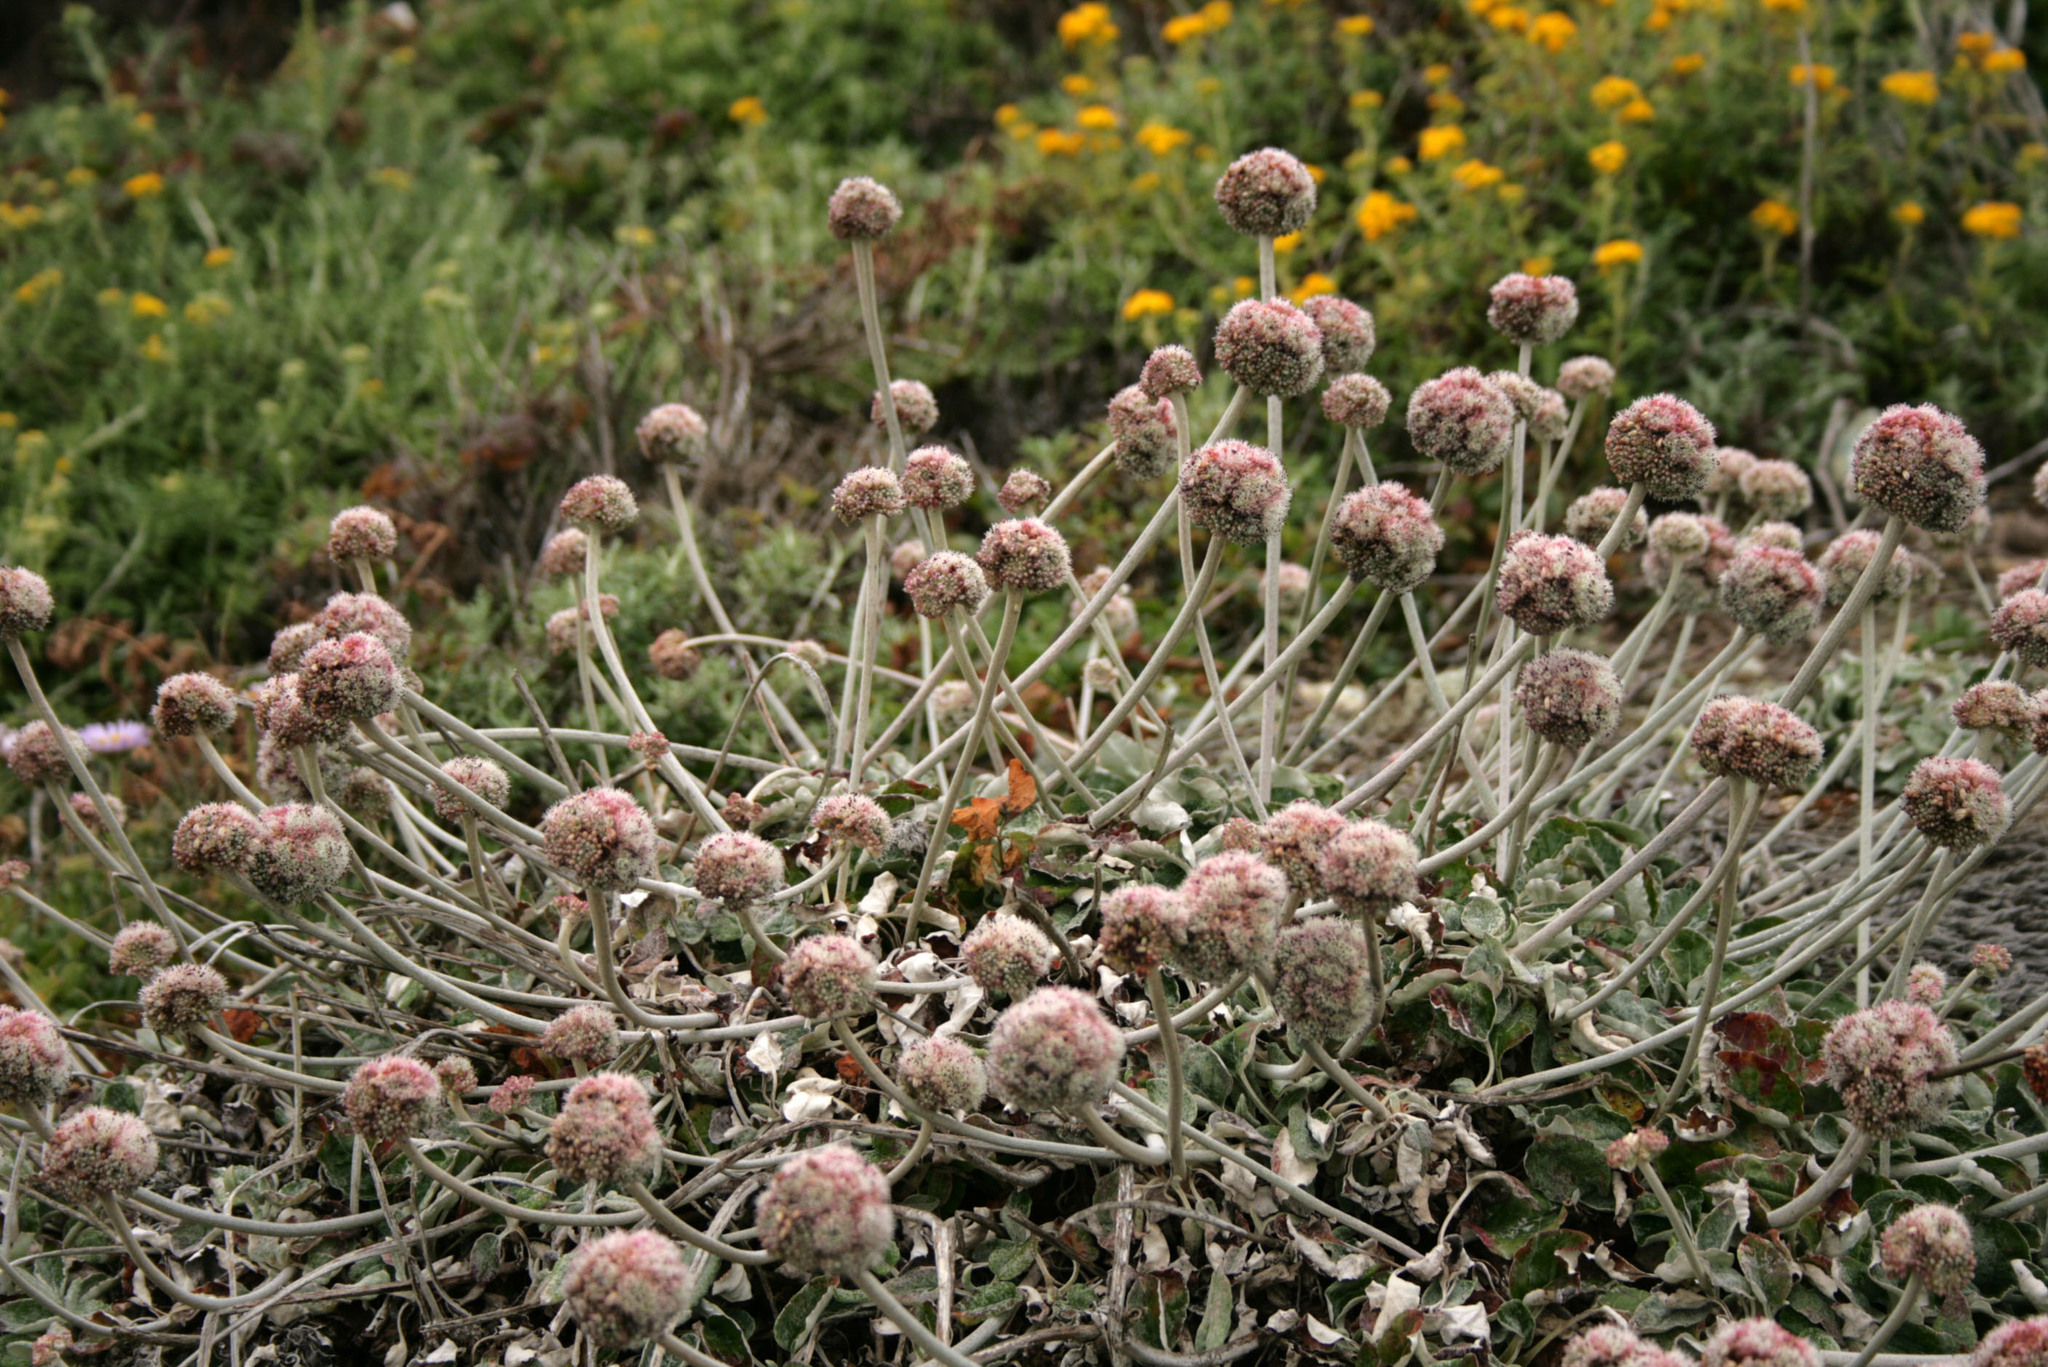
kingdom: Plantae
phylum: Tracheophyta
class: Magnoliopsida
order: Caryophyllales
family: Polygonaceae
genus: Eriogonum
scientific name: Eriogonum latifolium
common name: Seaside wild buckwheat
